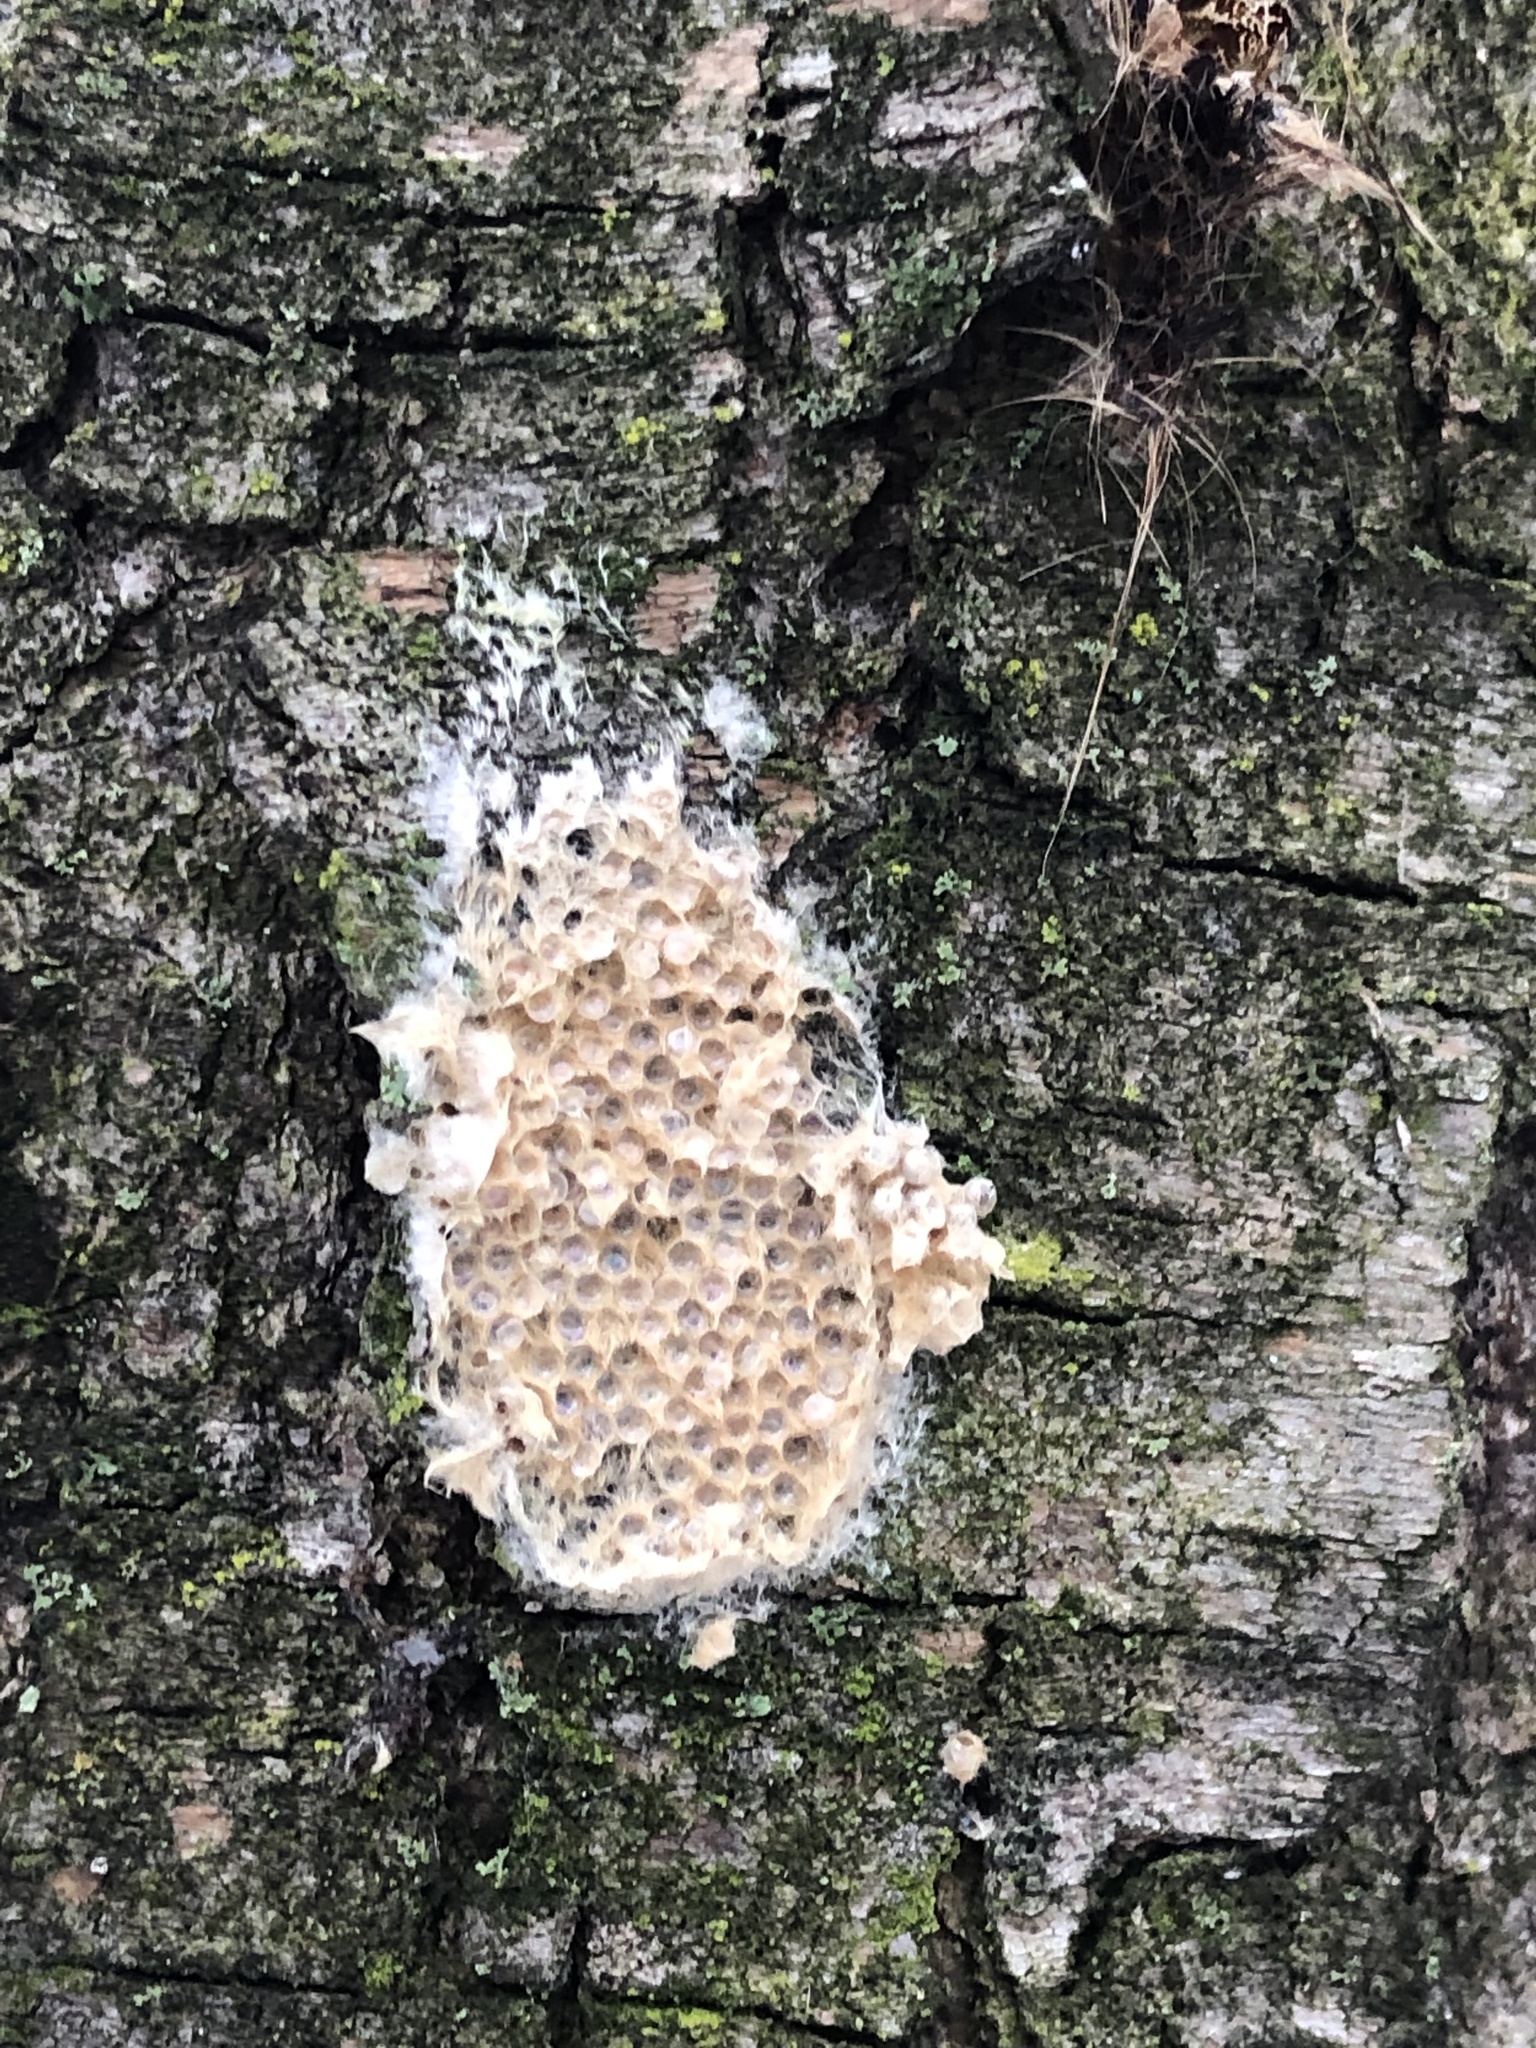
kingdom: Animalia
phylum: Arthropoda
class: Insecta
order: Lepidoptera
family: Erebidae
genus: Lymantria
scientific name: Lymantria dispar
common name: Gypsy moth
